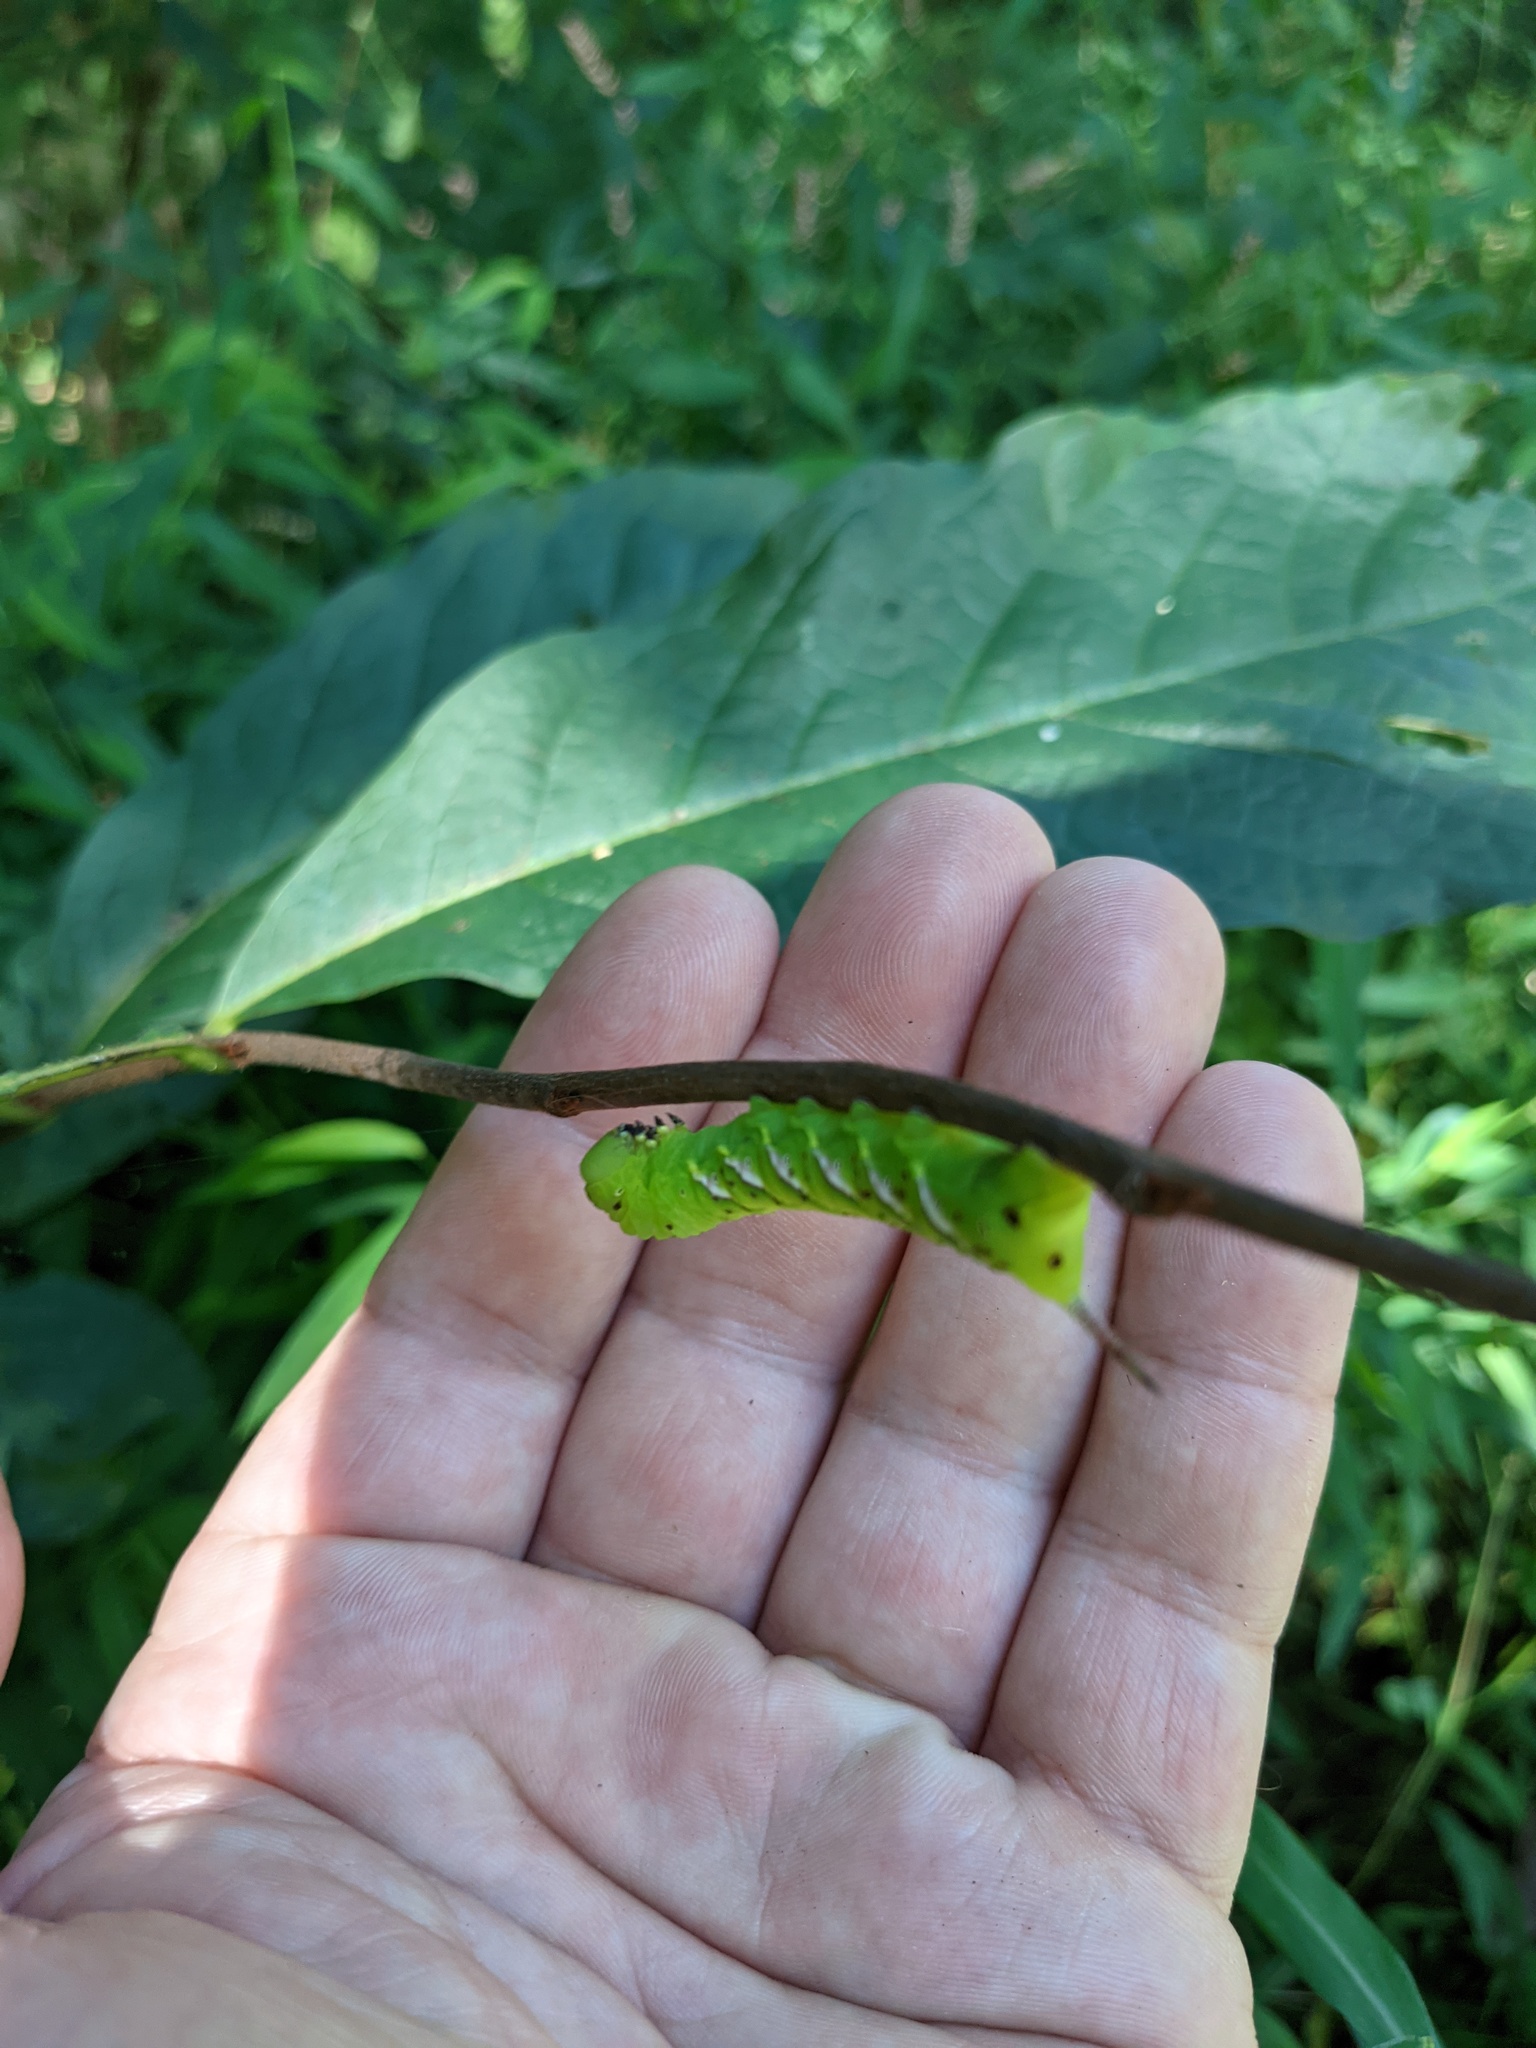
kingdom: Animalia
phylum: Arthropoda
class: Insecta
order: Lepidoptera
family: Sphingidae
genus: Dolba
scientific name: Dolba hyloeus
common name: Pawpaw sphinx
